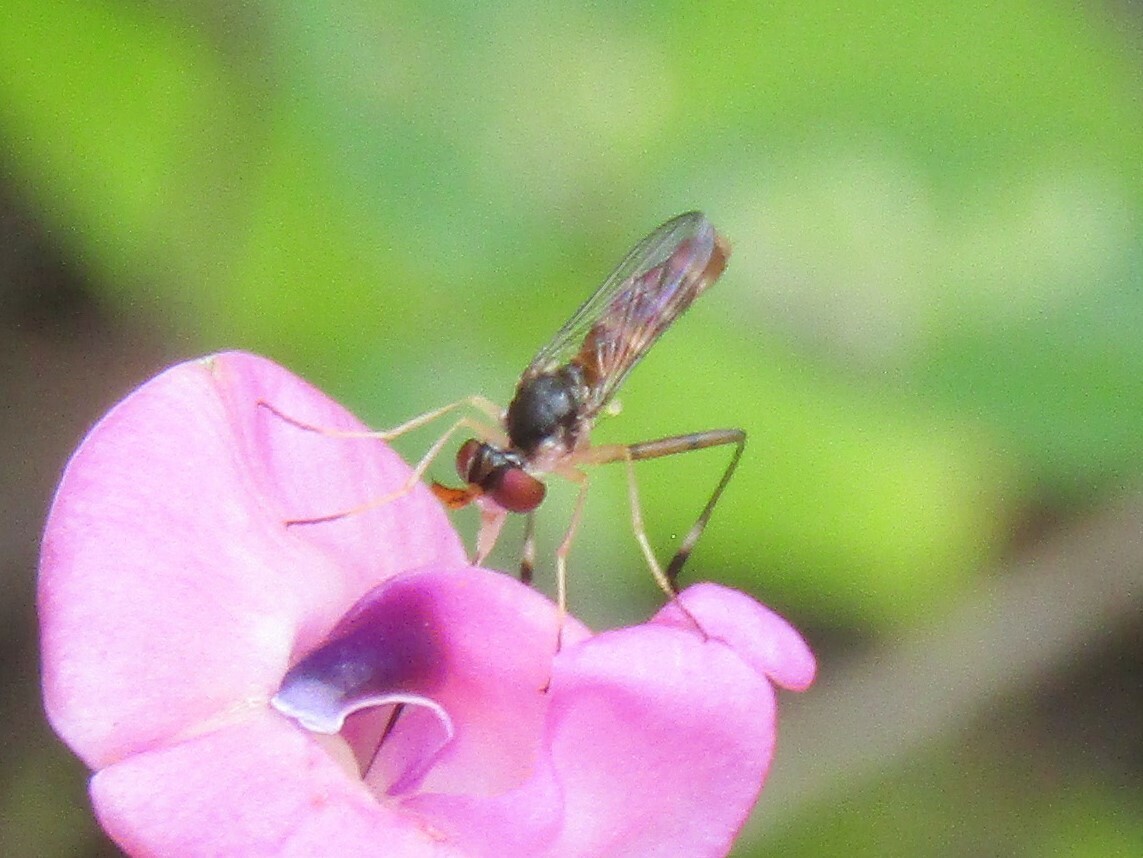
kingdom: Animalia
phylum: Arthropoda
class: Insecta
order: Diptera
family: Conopidae
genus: Stylogaster
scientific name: Stylogaster neglecta
